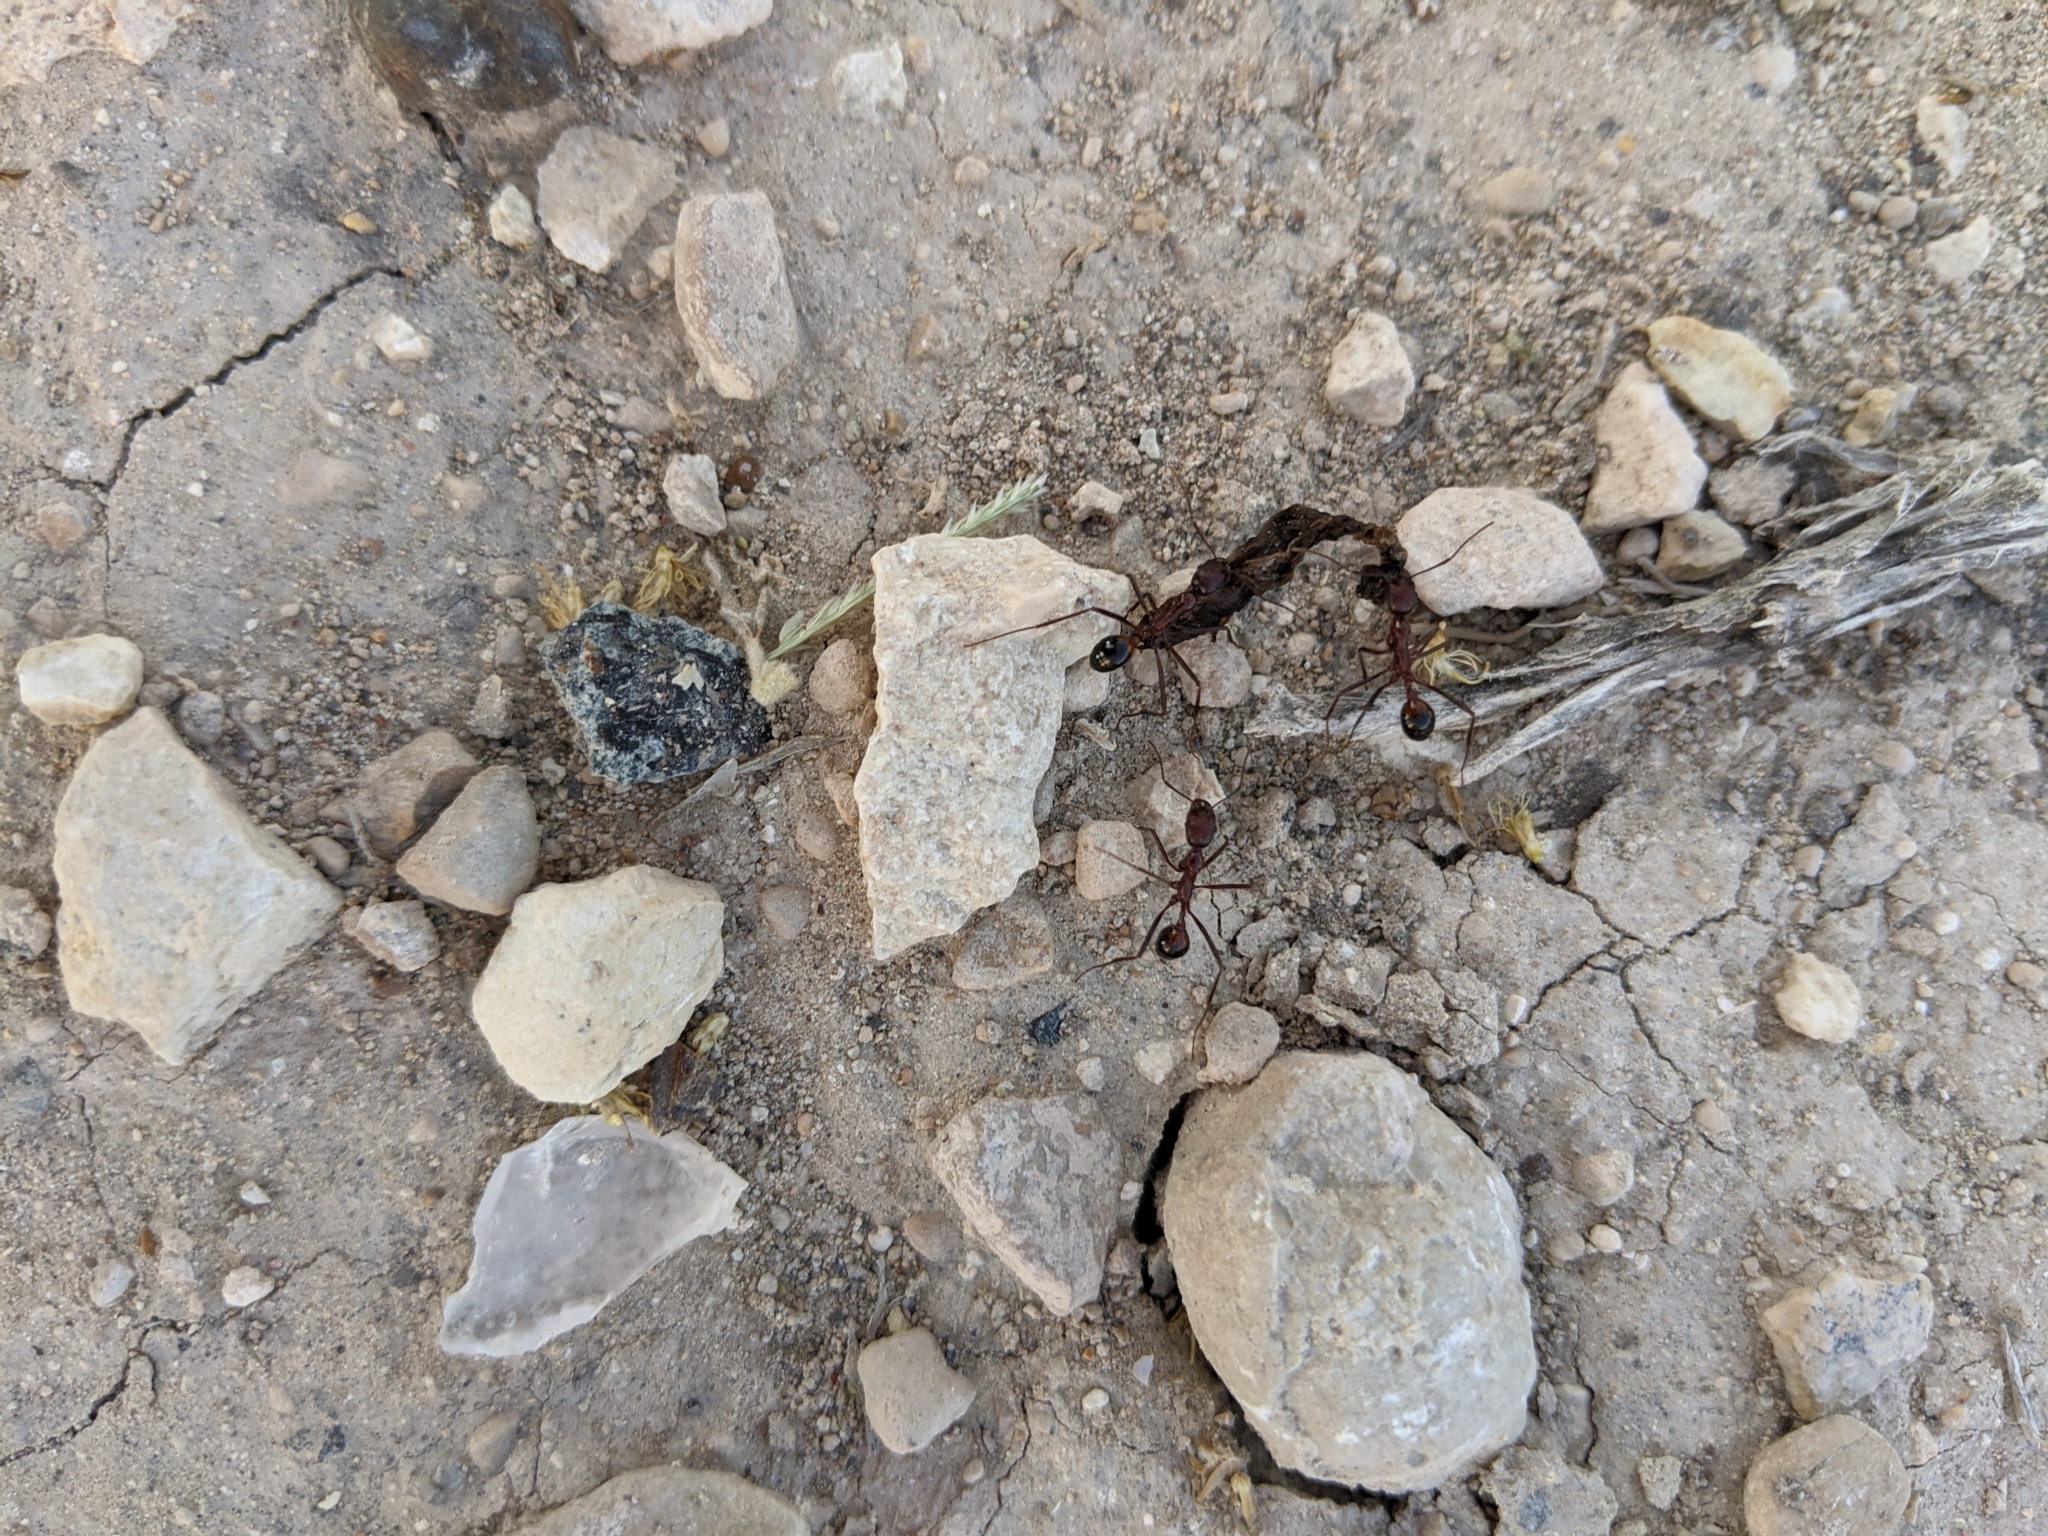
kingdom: Animalia
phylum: Arthropoda
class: Insecta
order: Hymenoptera
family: Formicidae
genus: Novomessor
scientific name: Novomessor cockerelli
